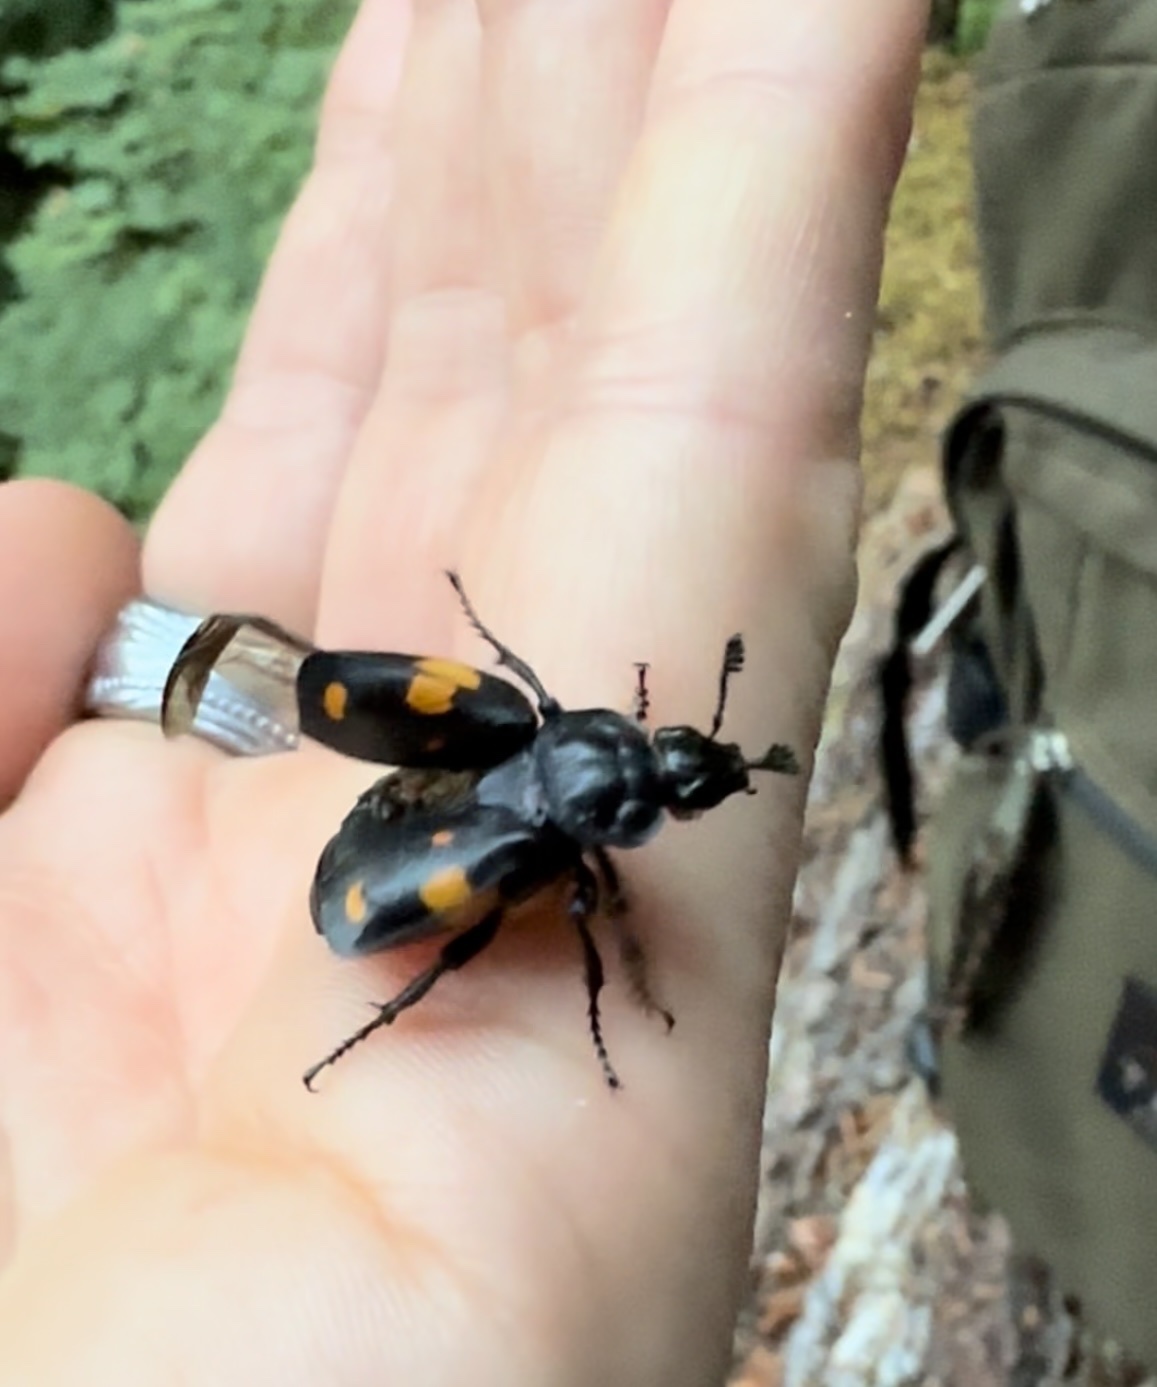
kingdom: Animalia
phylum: Arthropoda
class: Insecta
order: Coleoptera
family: Staphylinidae
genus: Nicrophorus
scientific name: Nicrophorus defodiens
